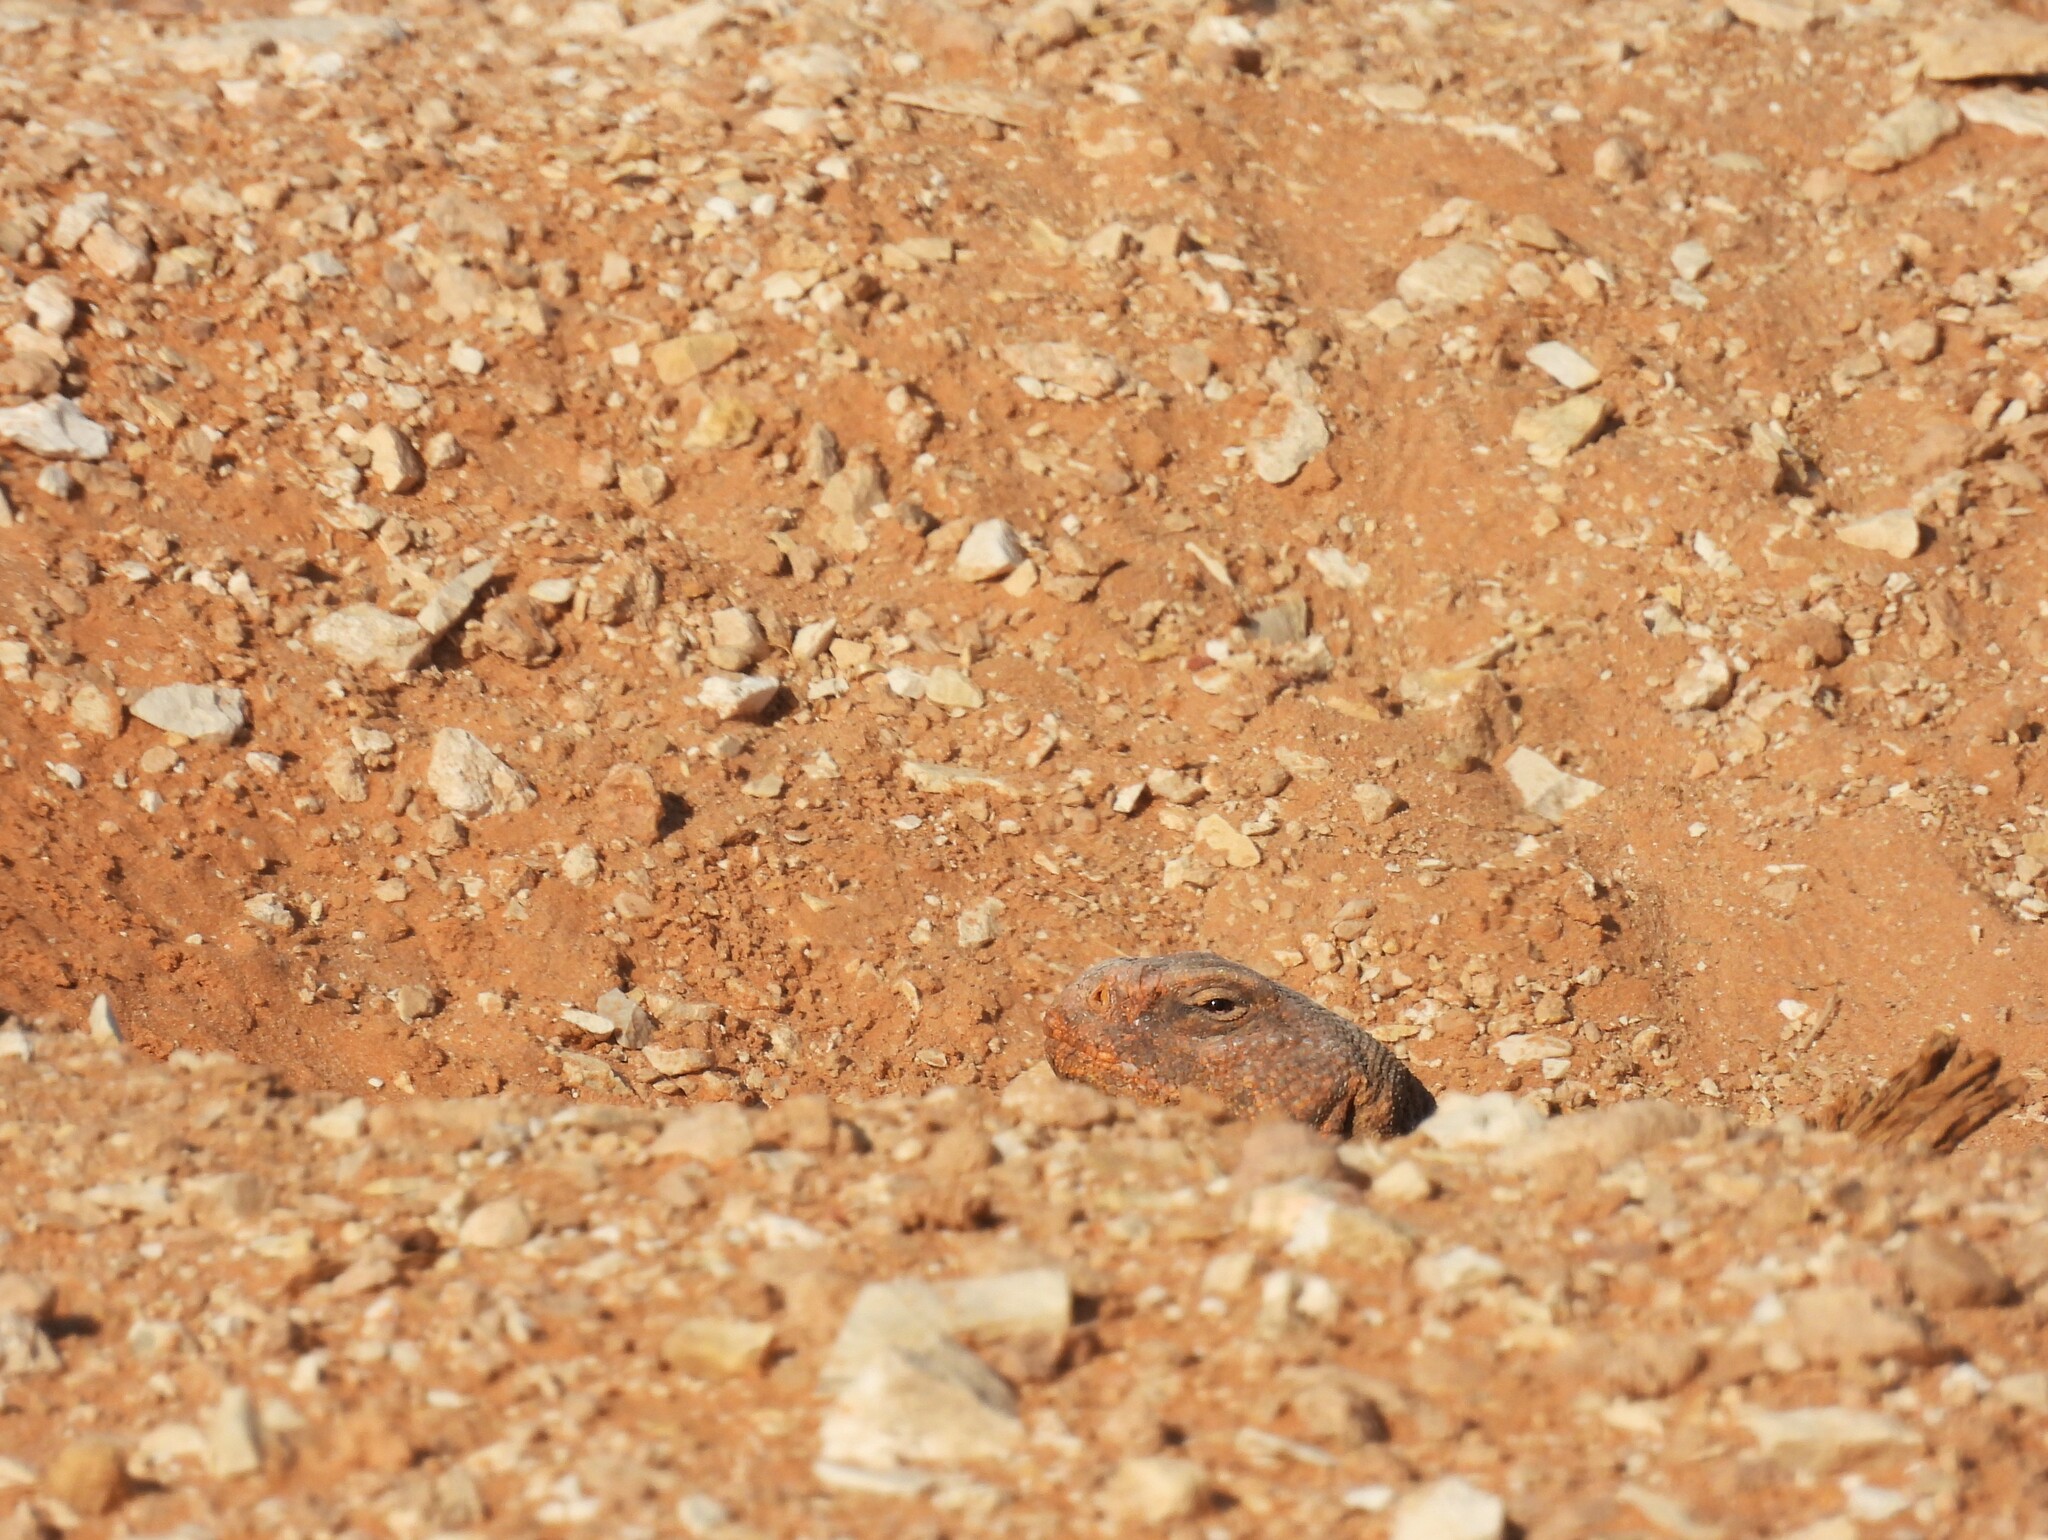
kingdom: Animalia
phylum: Chordata
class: Squamata
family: Agamidae
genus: Uromastyx
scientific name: Uromastyx aegyptia
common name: Egyptian mastigure
